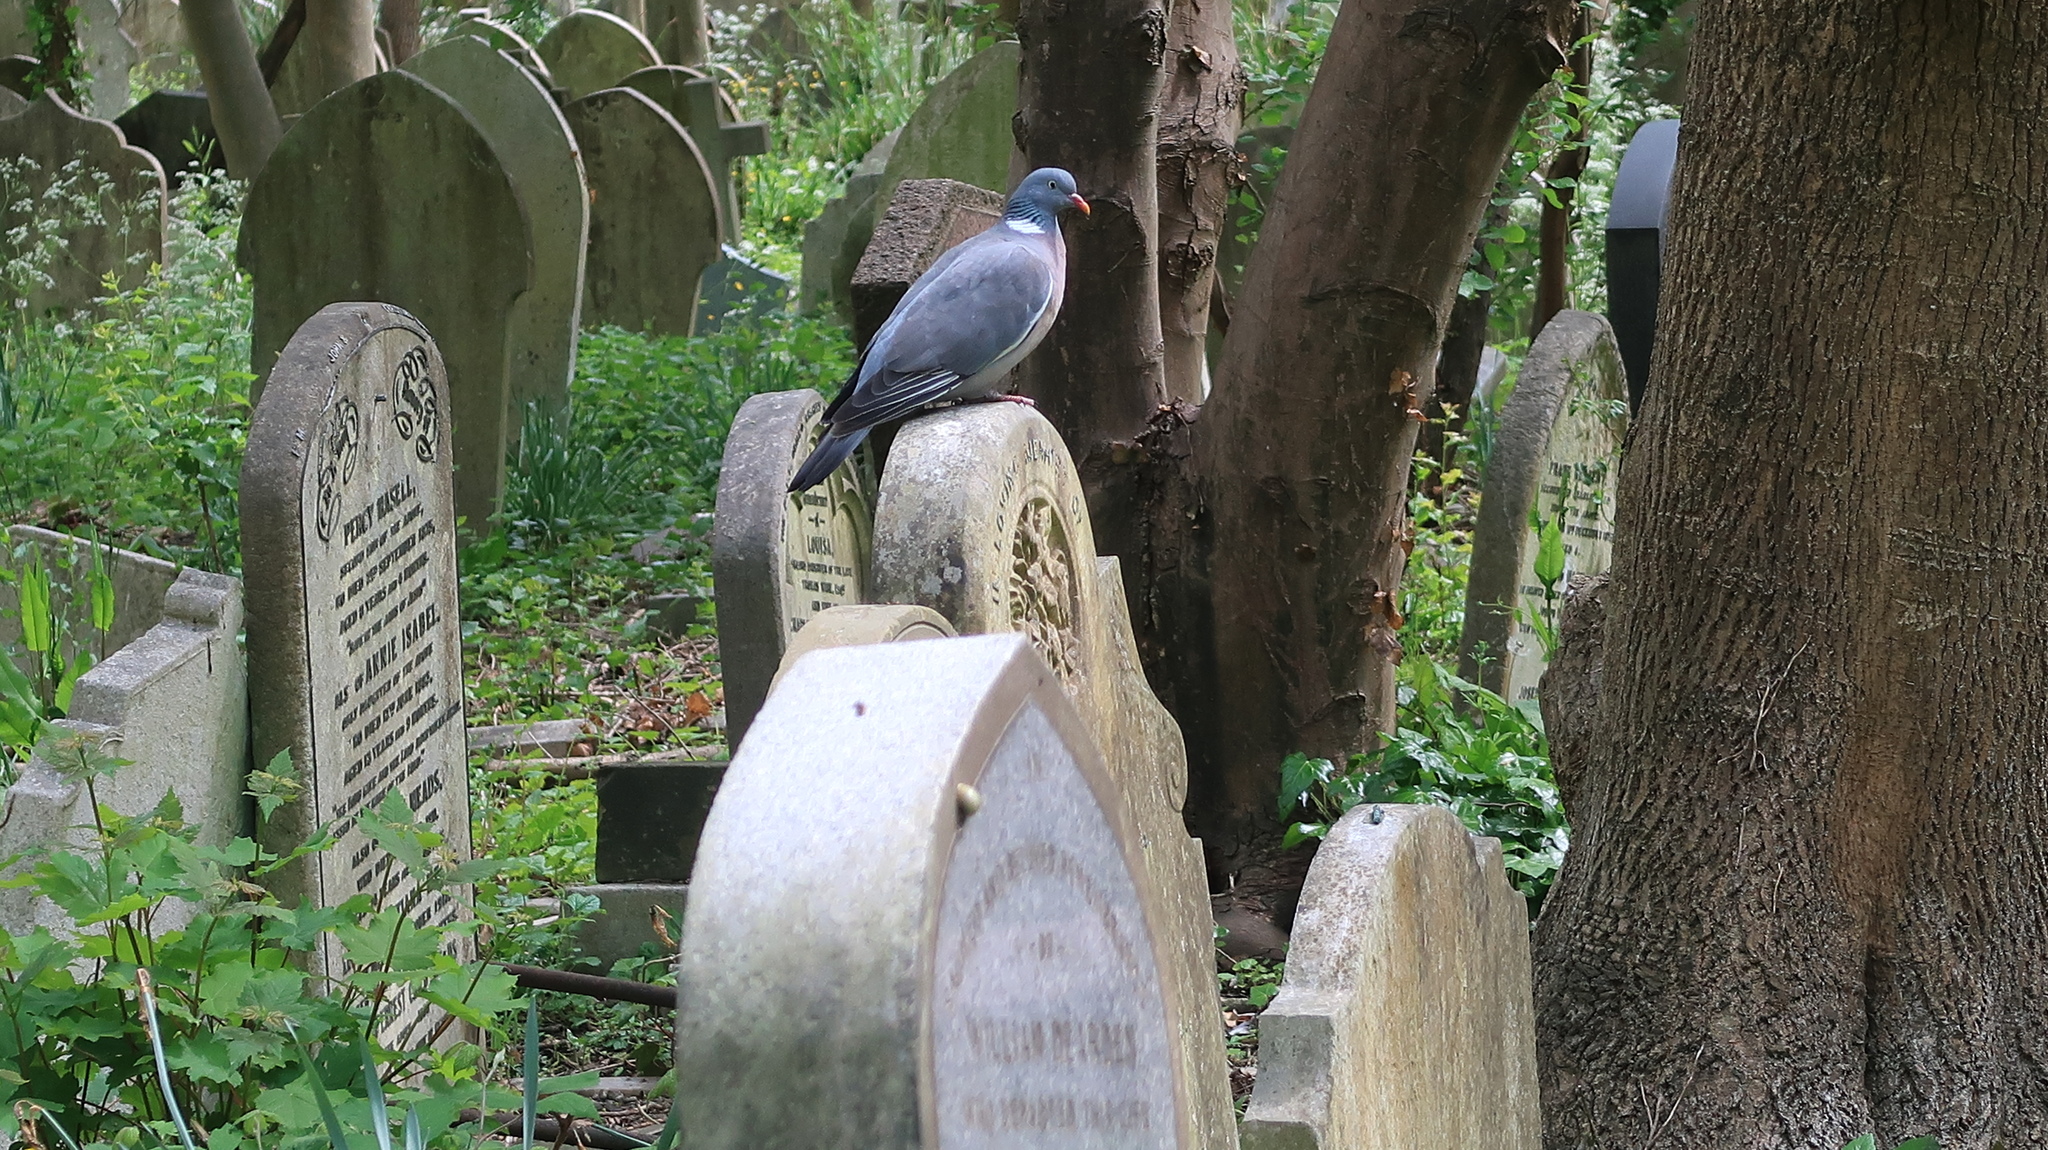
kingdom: Animalia
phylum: Chordata
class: Aves
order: Columbiformes
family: Columbidae
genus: Columba
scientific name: Columba palumbus
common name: Common wood pigeon
